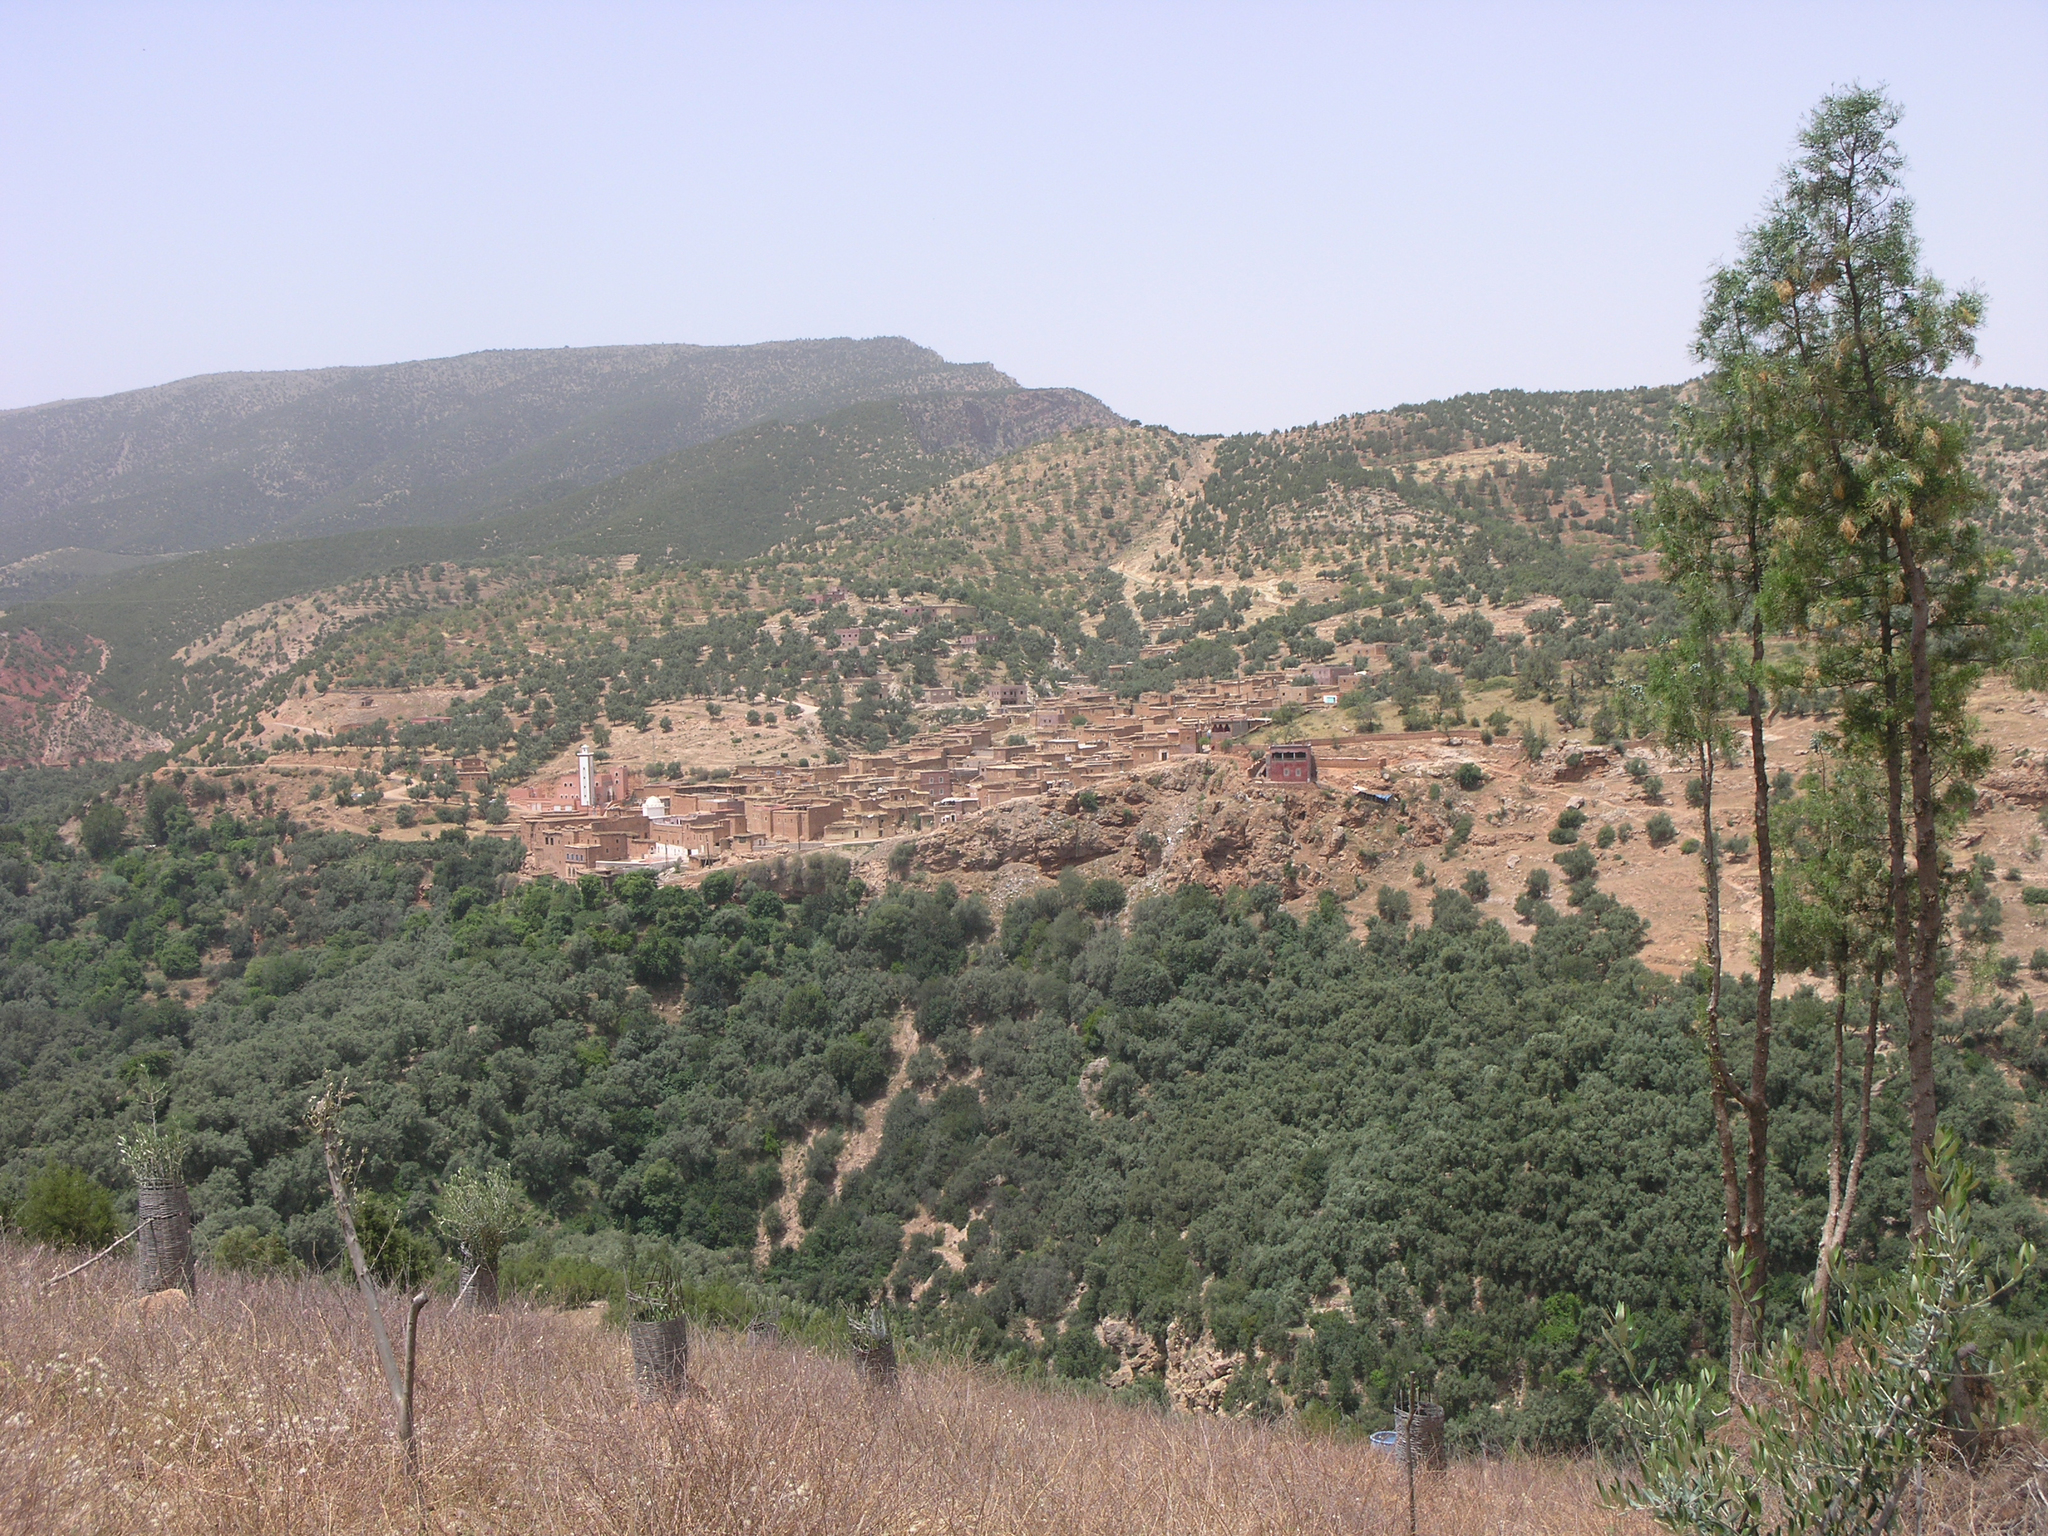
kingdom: Plantae
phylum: Tracheophyta
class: Pinopsida
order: Pinales
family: Cupressaceae
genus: Tetraclinis
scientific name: Tetraclinis articulata
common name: Sandarac
